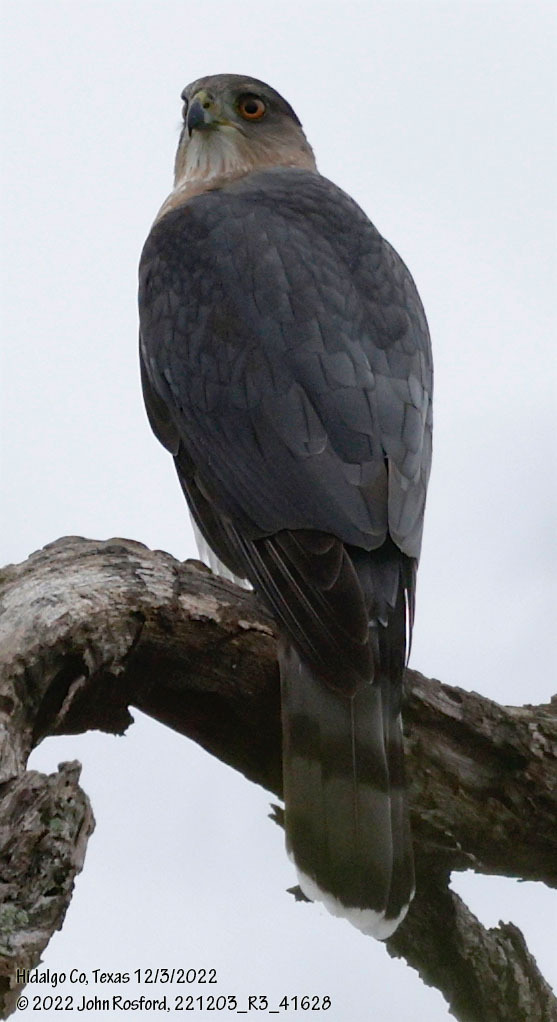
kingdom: Animalia
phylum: Chordata
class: Aves
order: Accipitriformes
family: Accipitridae
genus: Accipiter
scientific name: Accipiter cooperii
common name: Cooper's hawk
